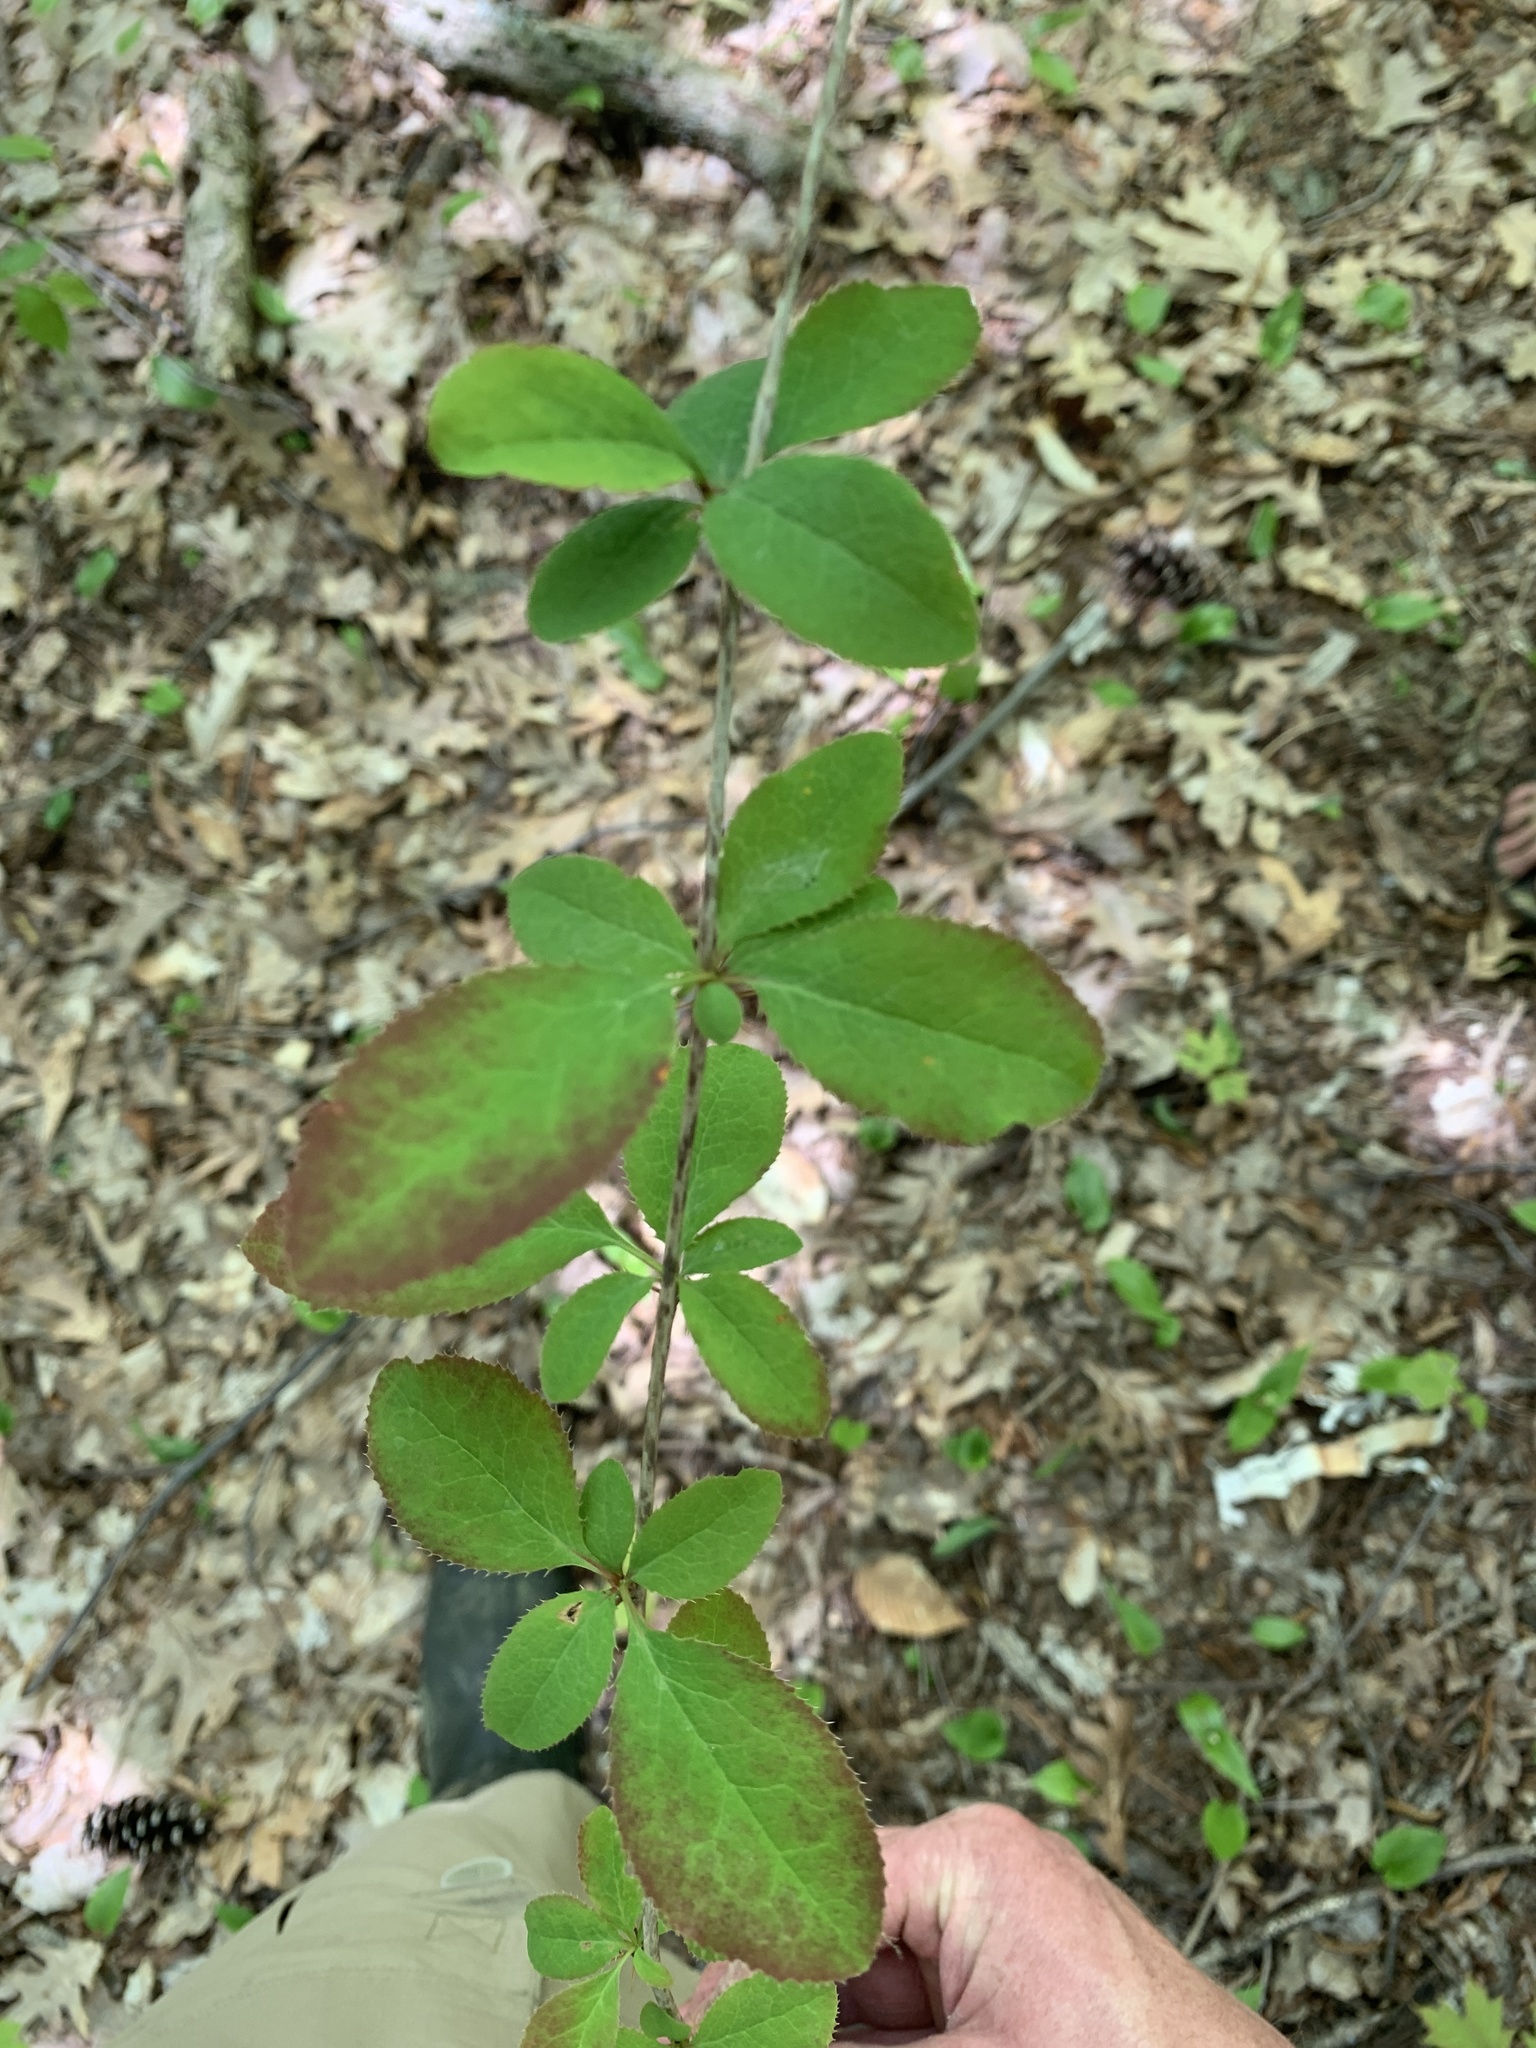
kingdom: Plantae
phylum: Tracheophyta
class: Magnoliopsida
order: Ranunculales
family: Berberidaceae
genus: Berberis
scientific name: Berberis vulgaris
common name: Barberry
